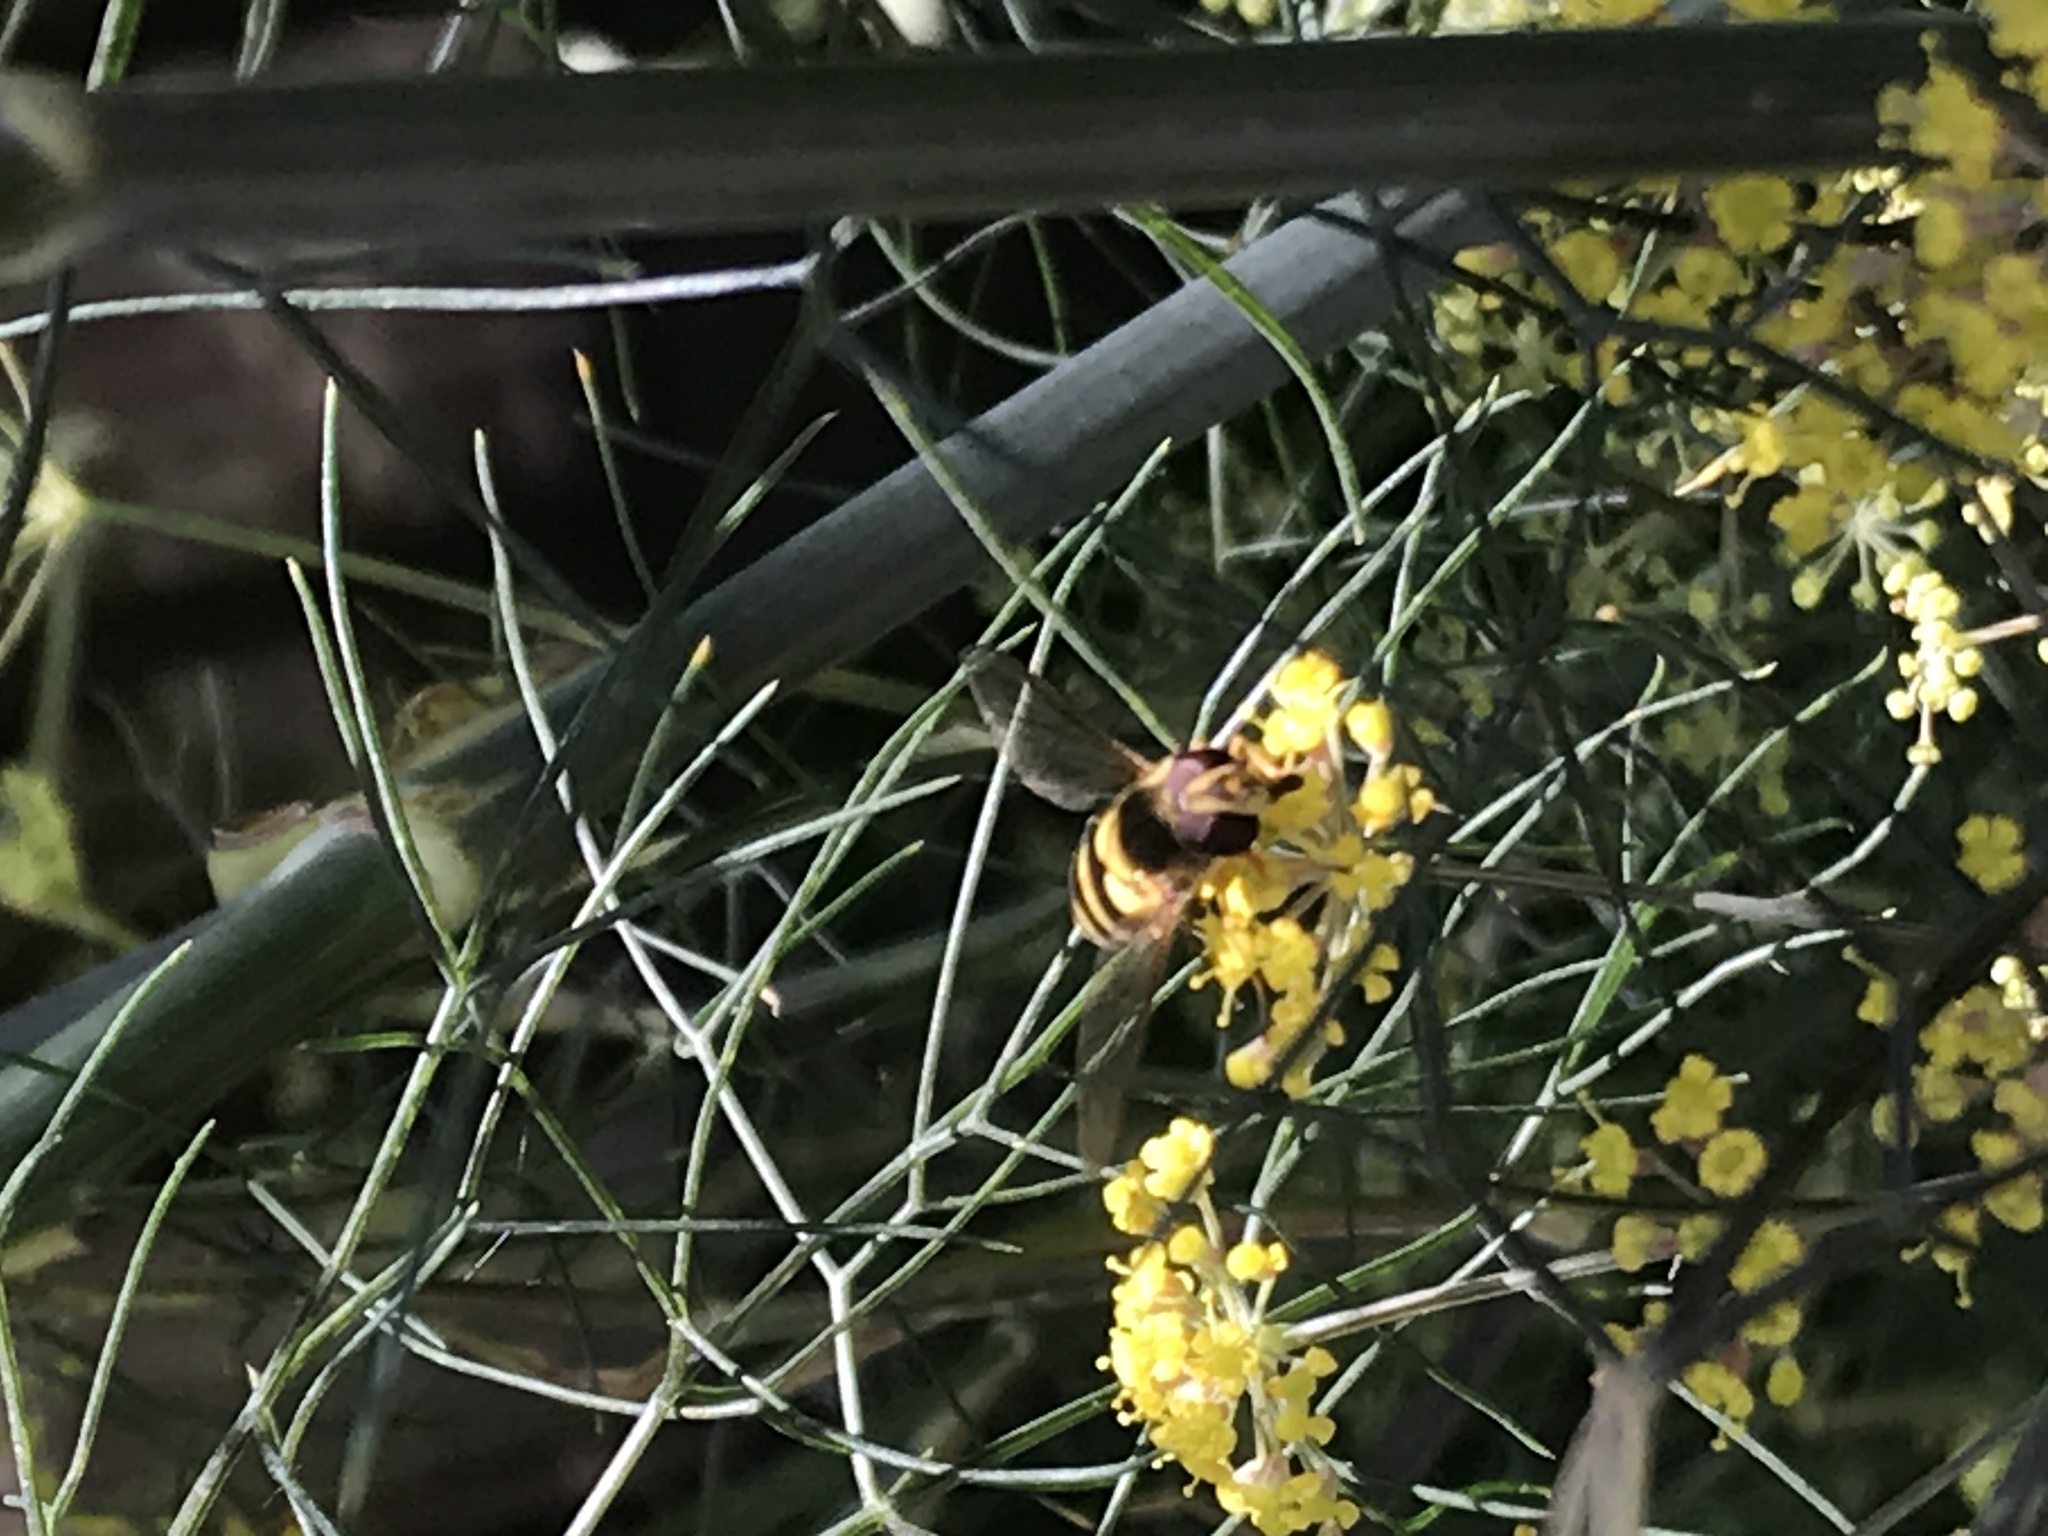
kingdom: Animalia
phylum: Arthropoda
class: Insecta
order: Diptera
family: Syrphidae
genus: Syrphus
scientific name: Syrphus
